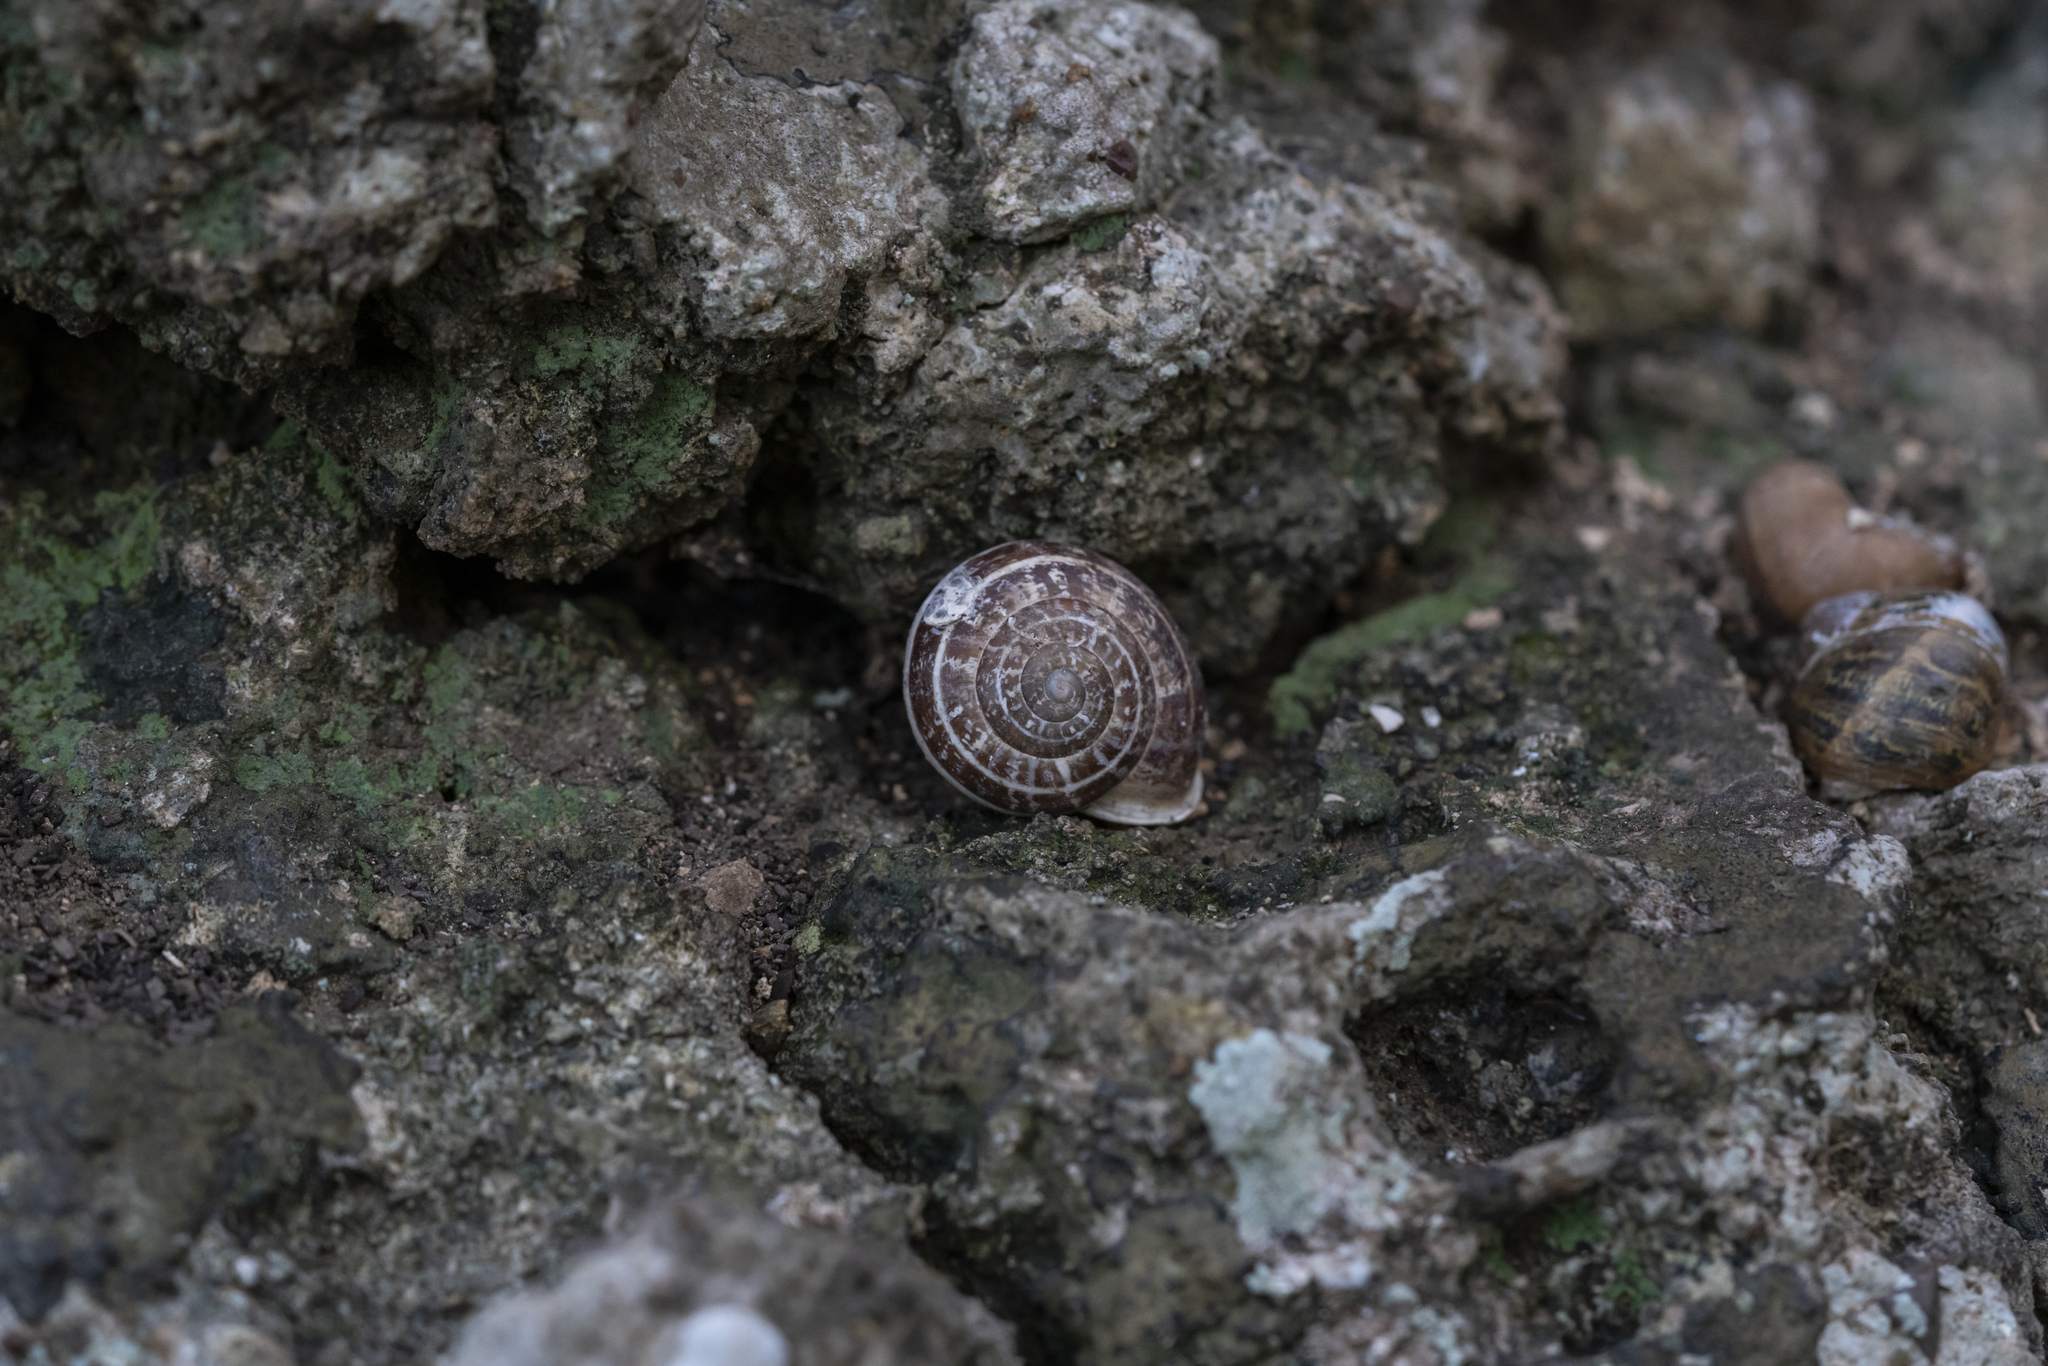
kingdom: Animalia
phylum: Mollusca
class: Gastropoda
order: Stylommatophora
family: Helicidae
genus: Eobania
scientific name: Eobania vermiculata
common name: Chocolateband snail
